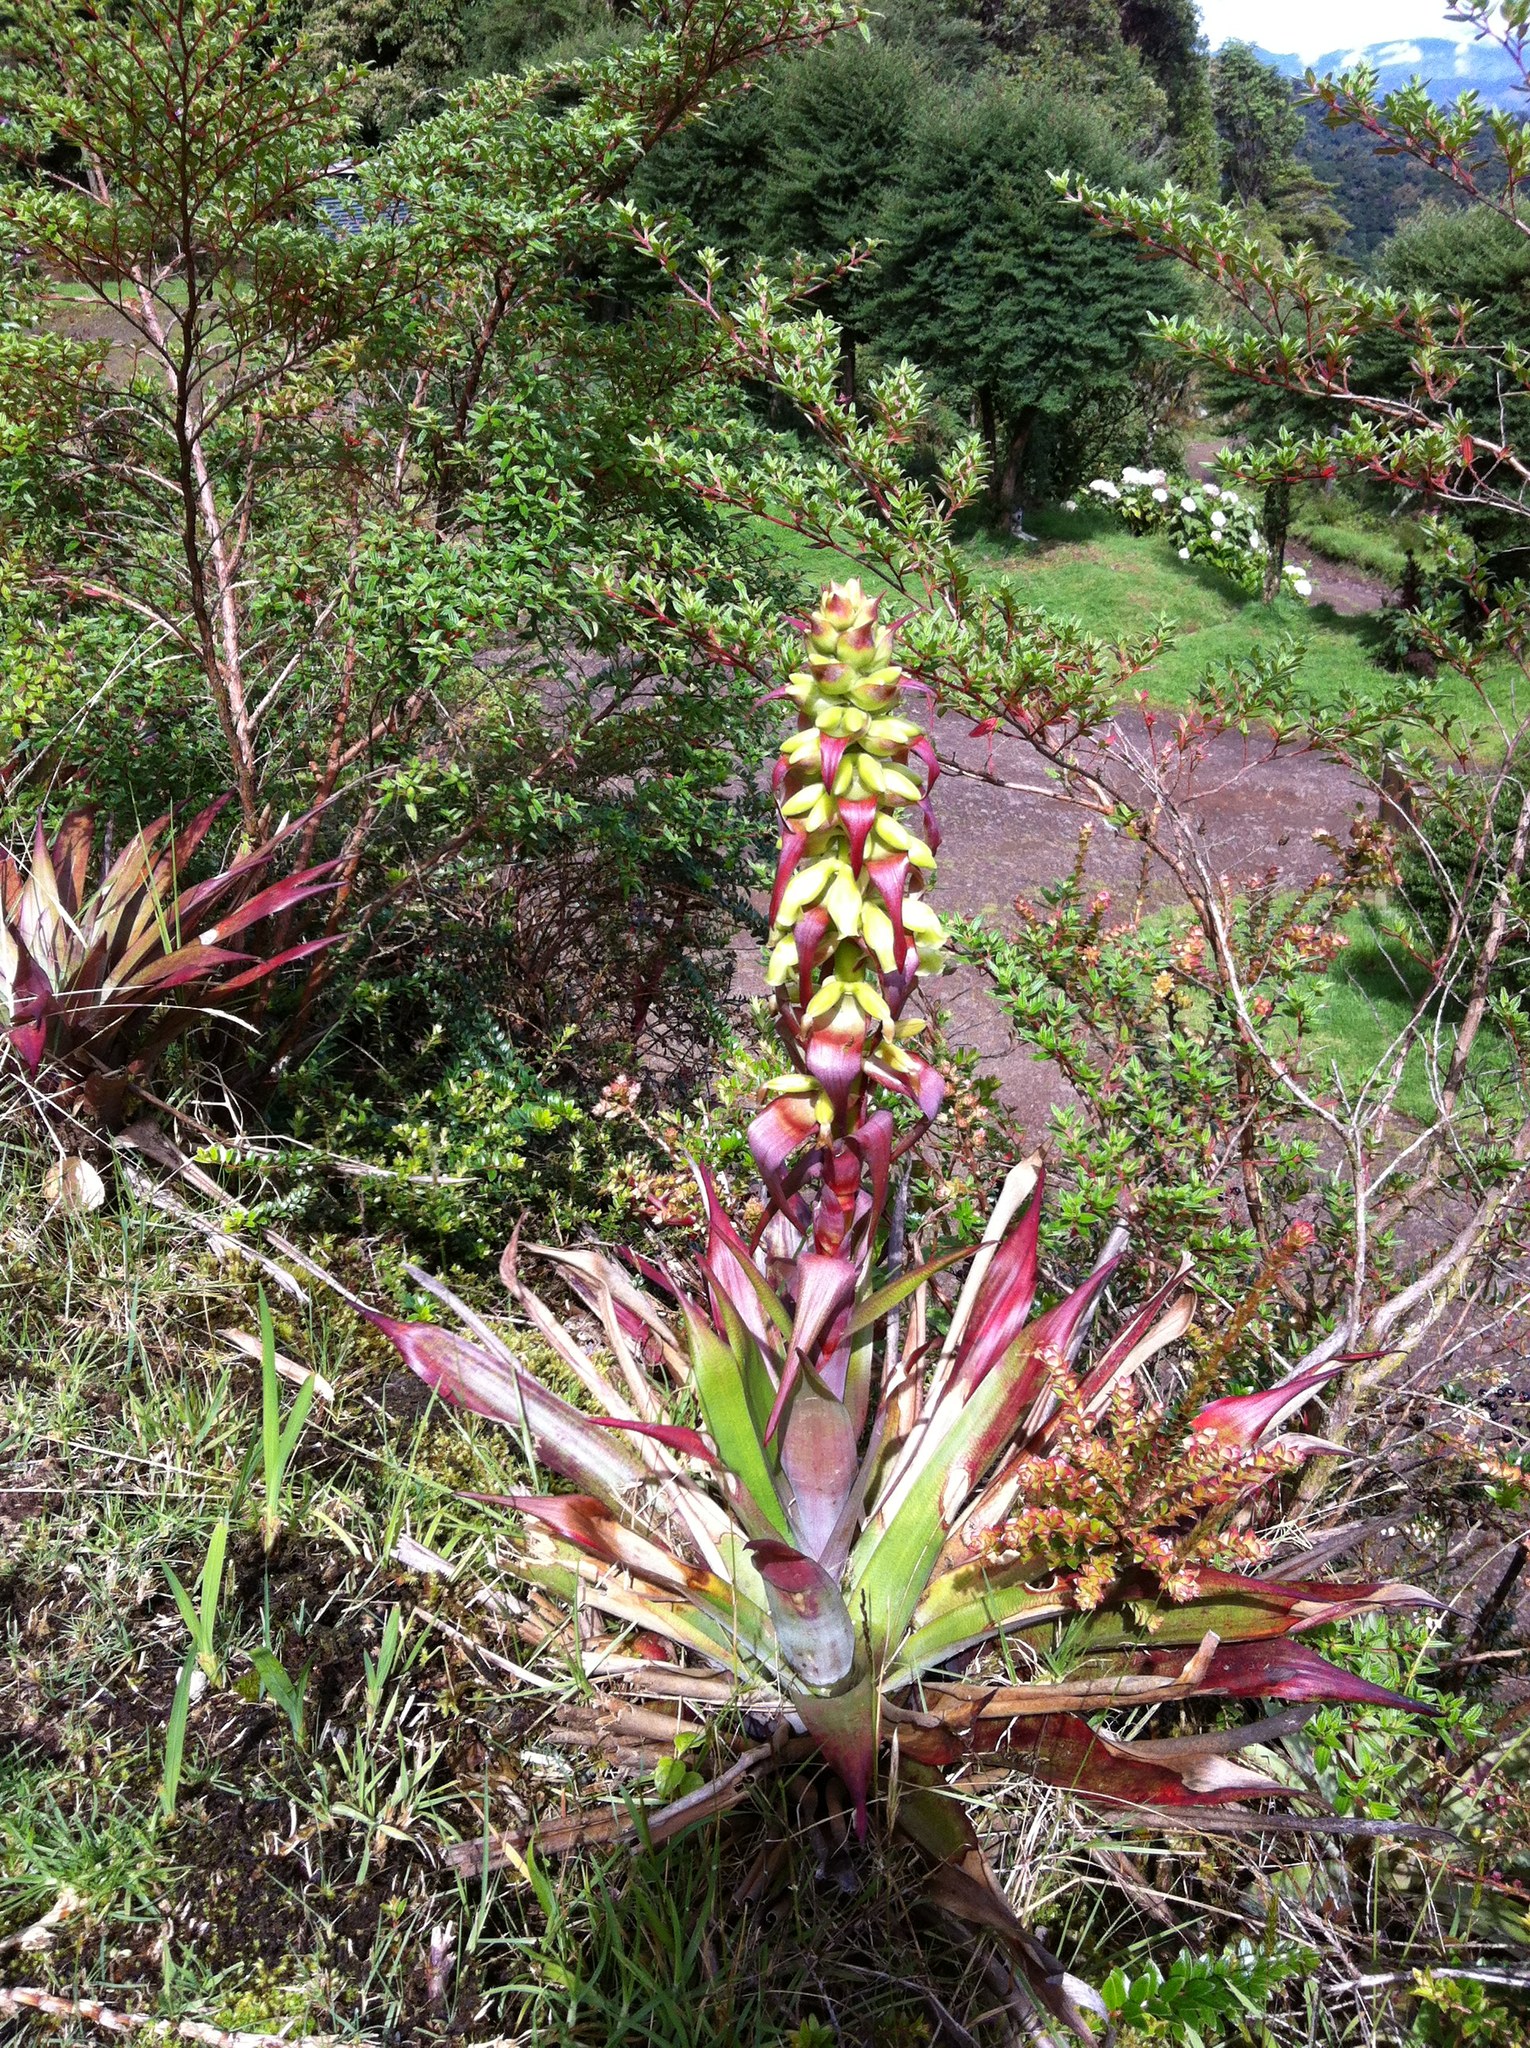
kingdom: Plantae
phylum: Tracheophyta
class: Liliopsida
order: Poales
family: Bromeliaceae
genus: Werauhia
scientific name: Werauhia ororiensis
